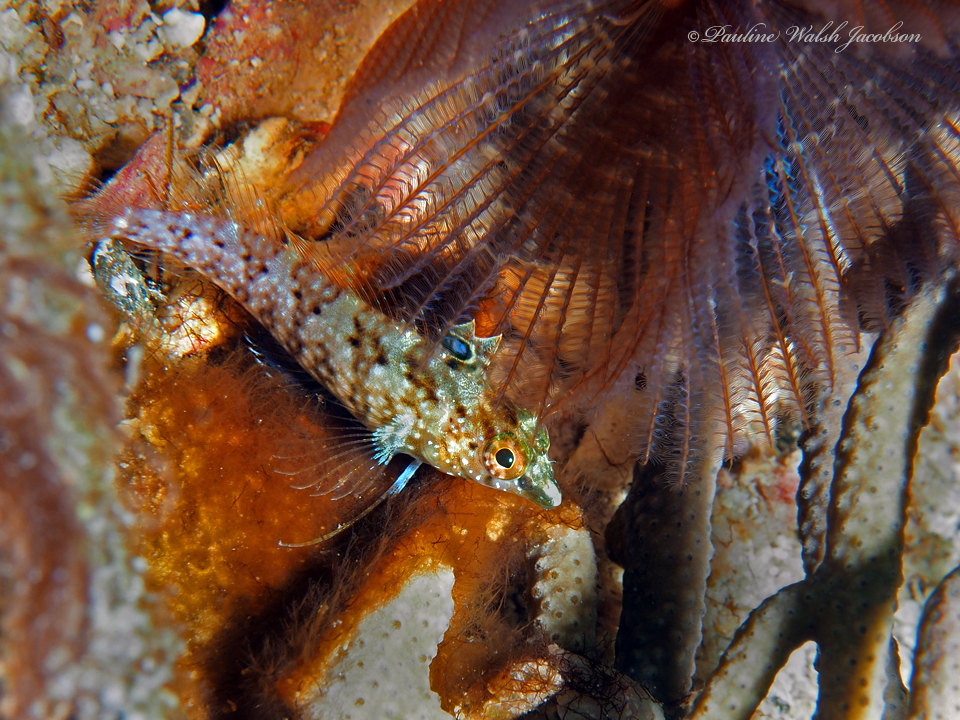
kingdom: Animalia
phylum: Chordata
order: Perciformes
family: Labrisomidae
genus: Malacoctenus
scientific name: Malacoctenus boehlkei
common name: Diamond blenny
